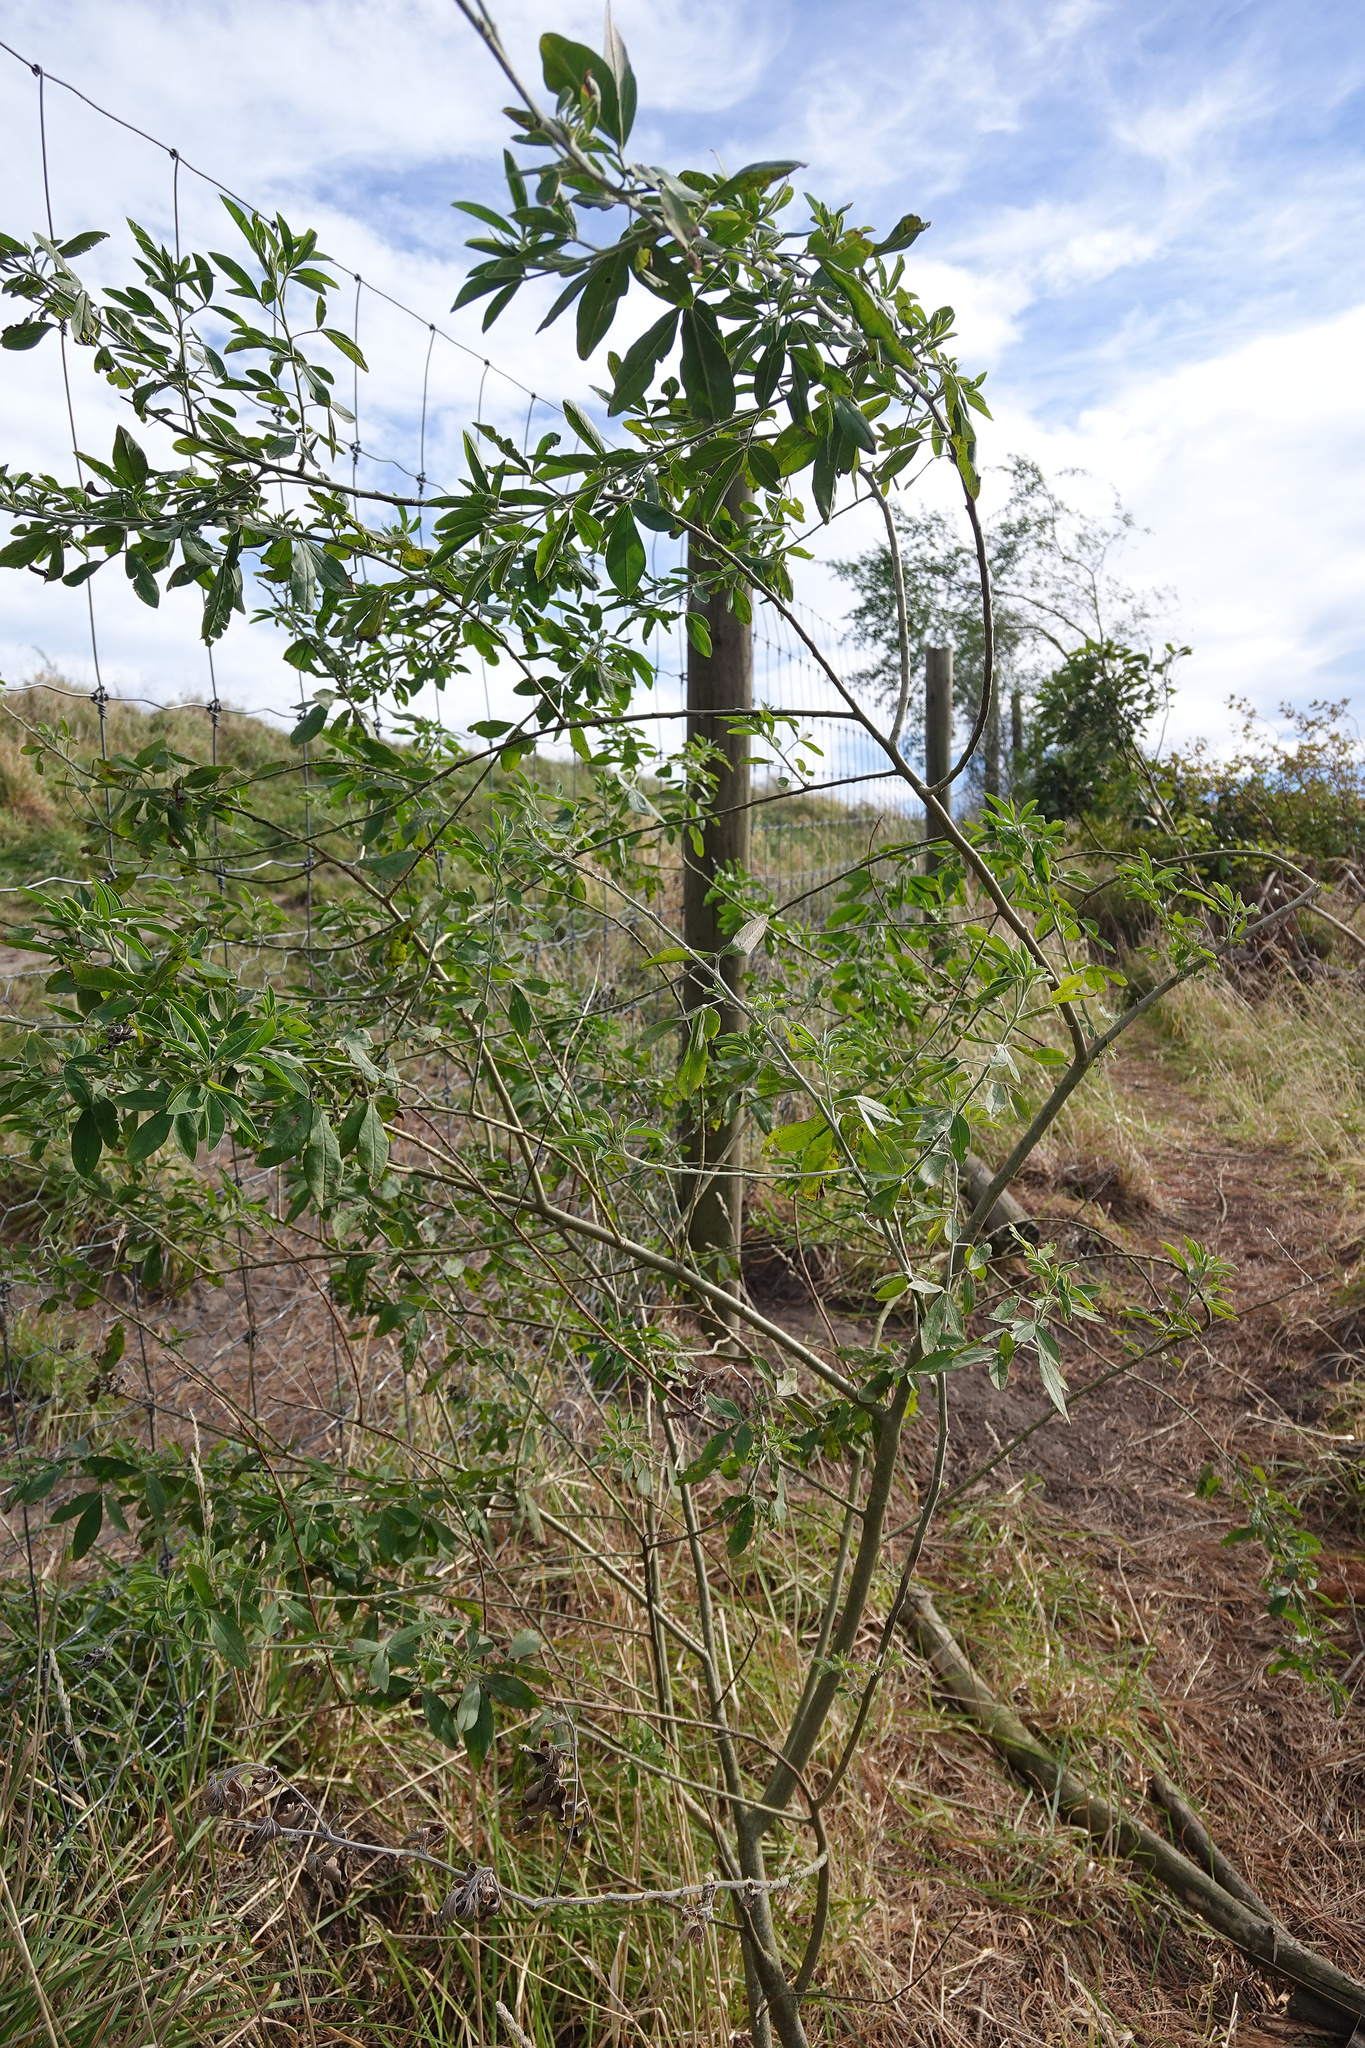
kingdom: Plantae
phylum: Tracheophyta
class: Magnoliopsida
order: Fabales
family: Fabaceae
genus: Chamaecytisus
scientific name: Chamaecytisus prolifer
